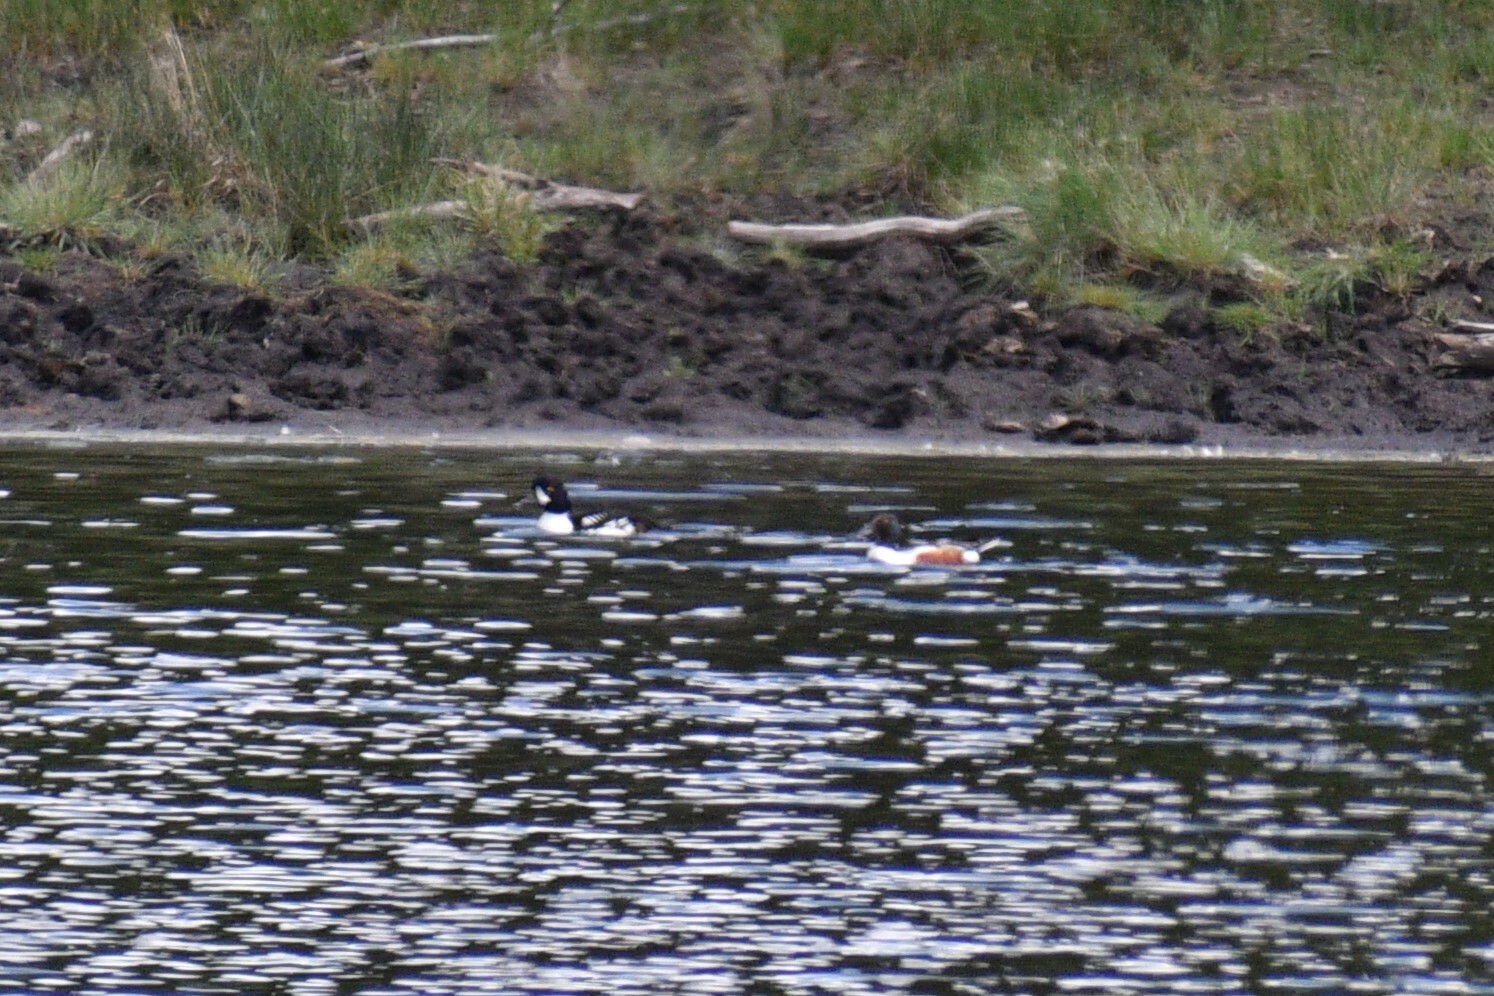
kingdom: Animalia
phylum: Chordata
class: Aves
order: Anseriformes
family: Anatidae
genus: Spatula
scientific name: Spatula clypeata
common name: Northern shoveler
